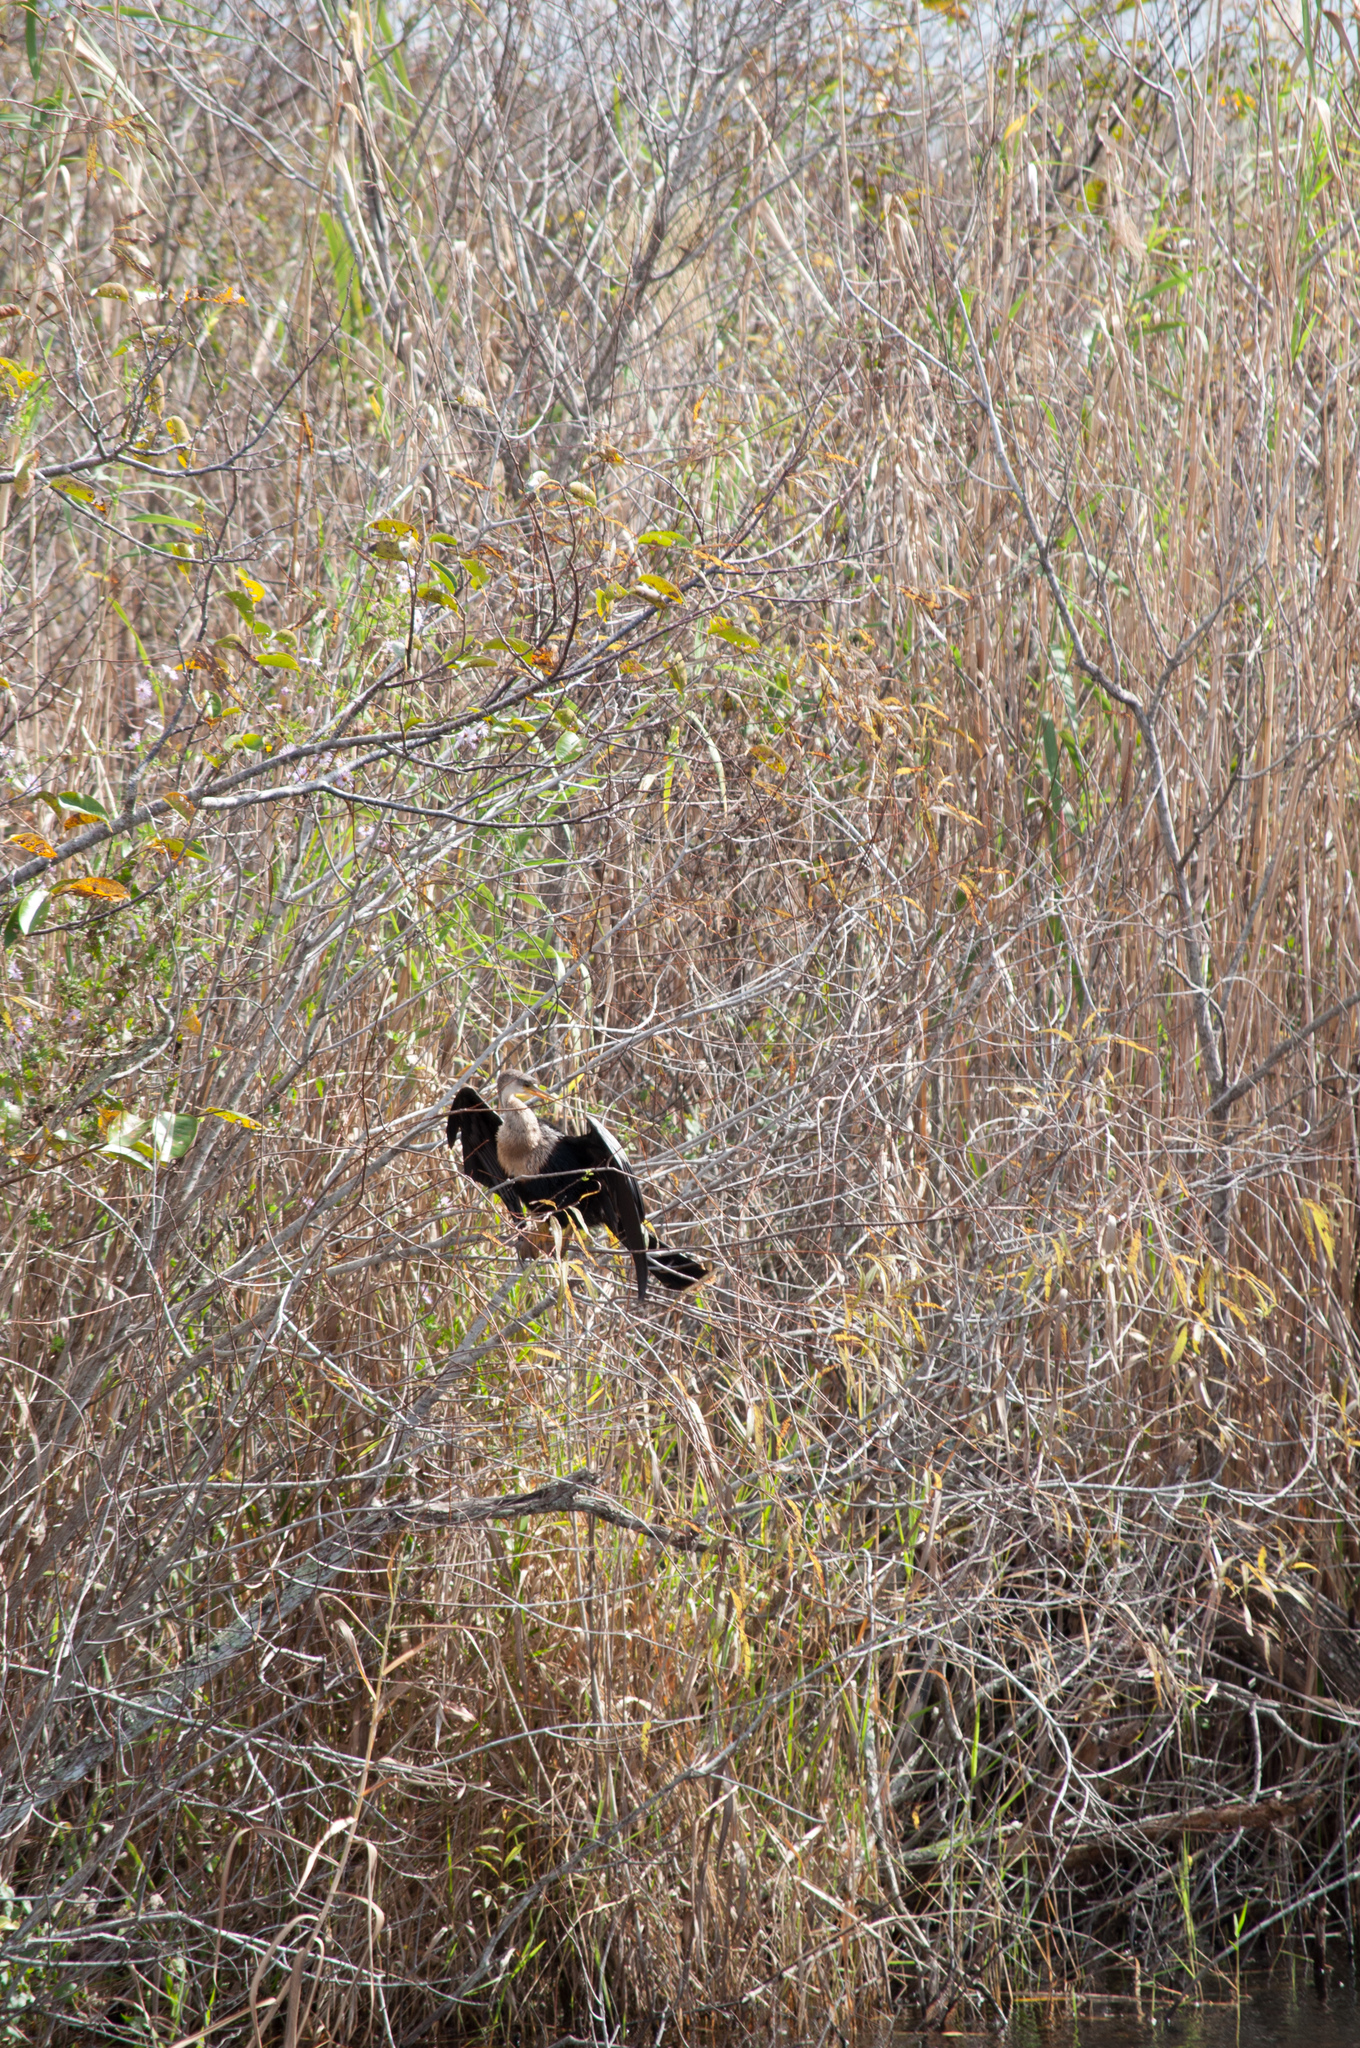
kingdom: Animalia
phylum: Chordata
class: Aves
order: Suliformes
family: Anhingidae
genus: Anhinga
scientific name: Anhinga anhinga
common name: Anhinga
